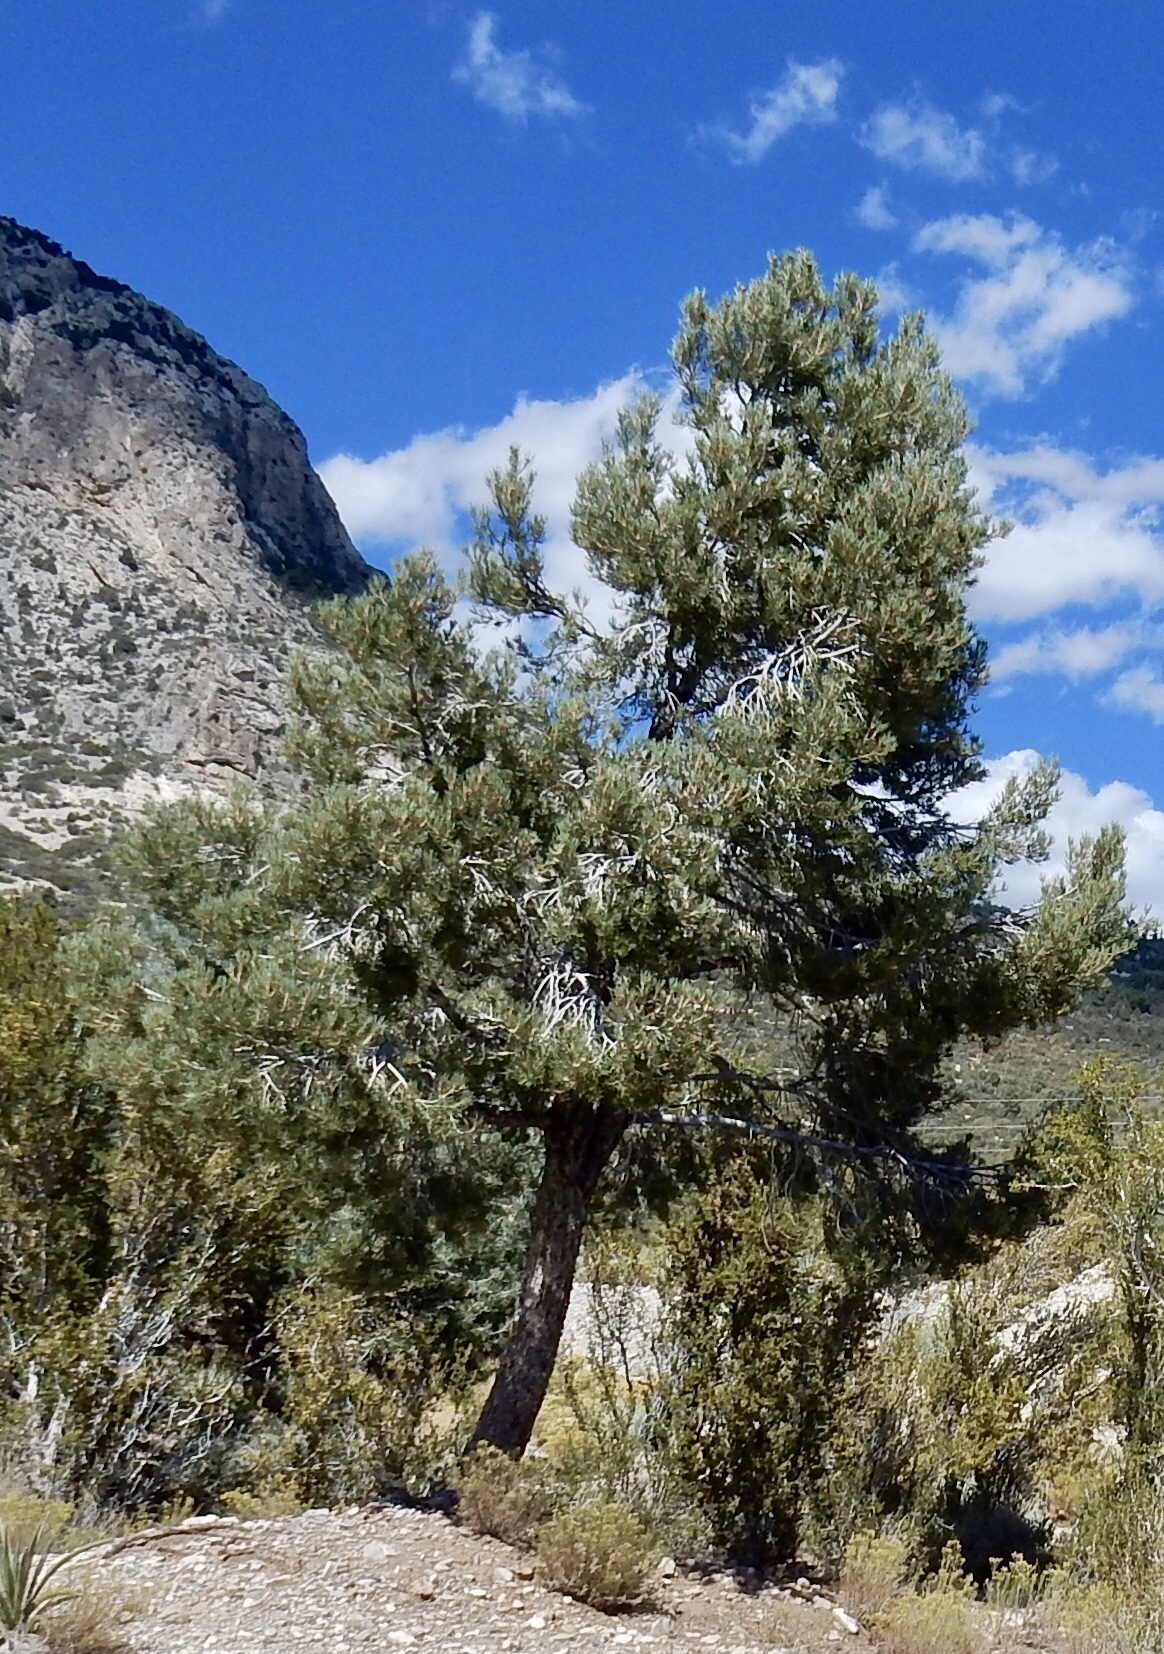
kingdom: Plantae
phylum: Tracheophyta
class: Pinopsida
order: Pinales
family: Pinaceae
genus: Pinus
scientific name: Pinus monophylla
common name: One-leaved nut pine
